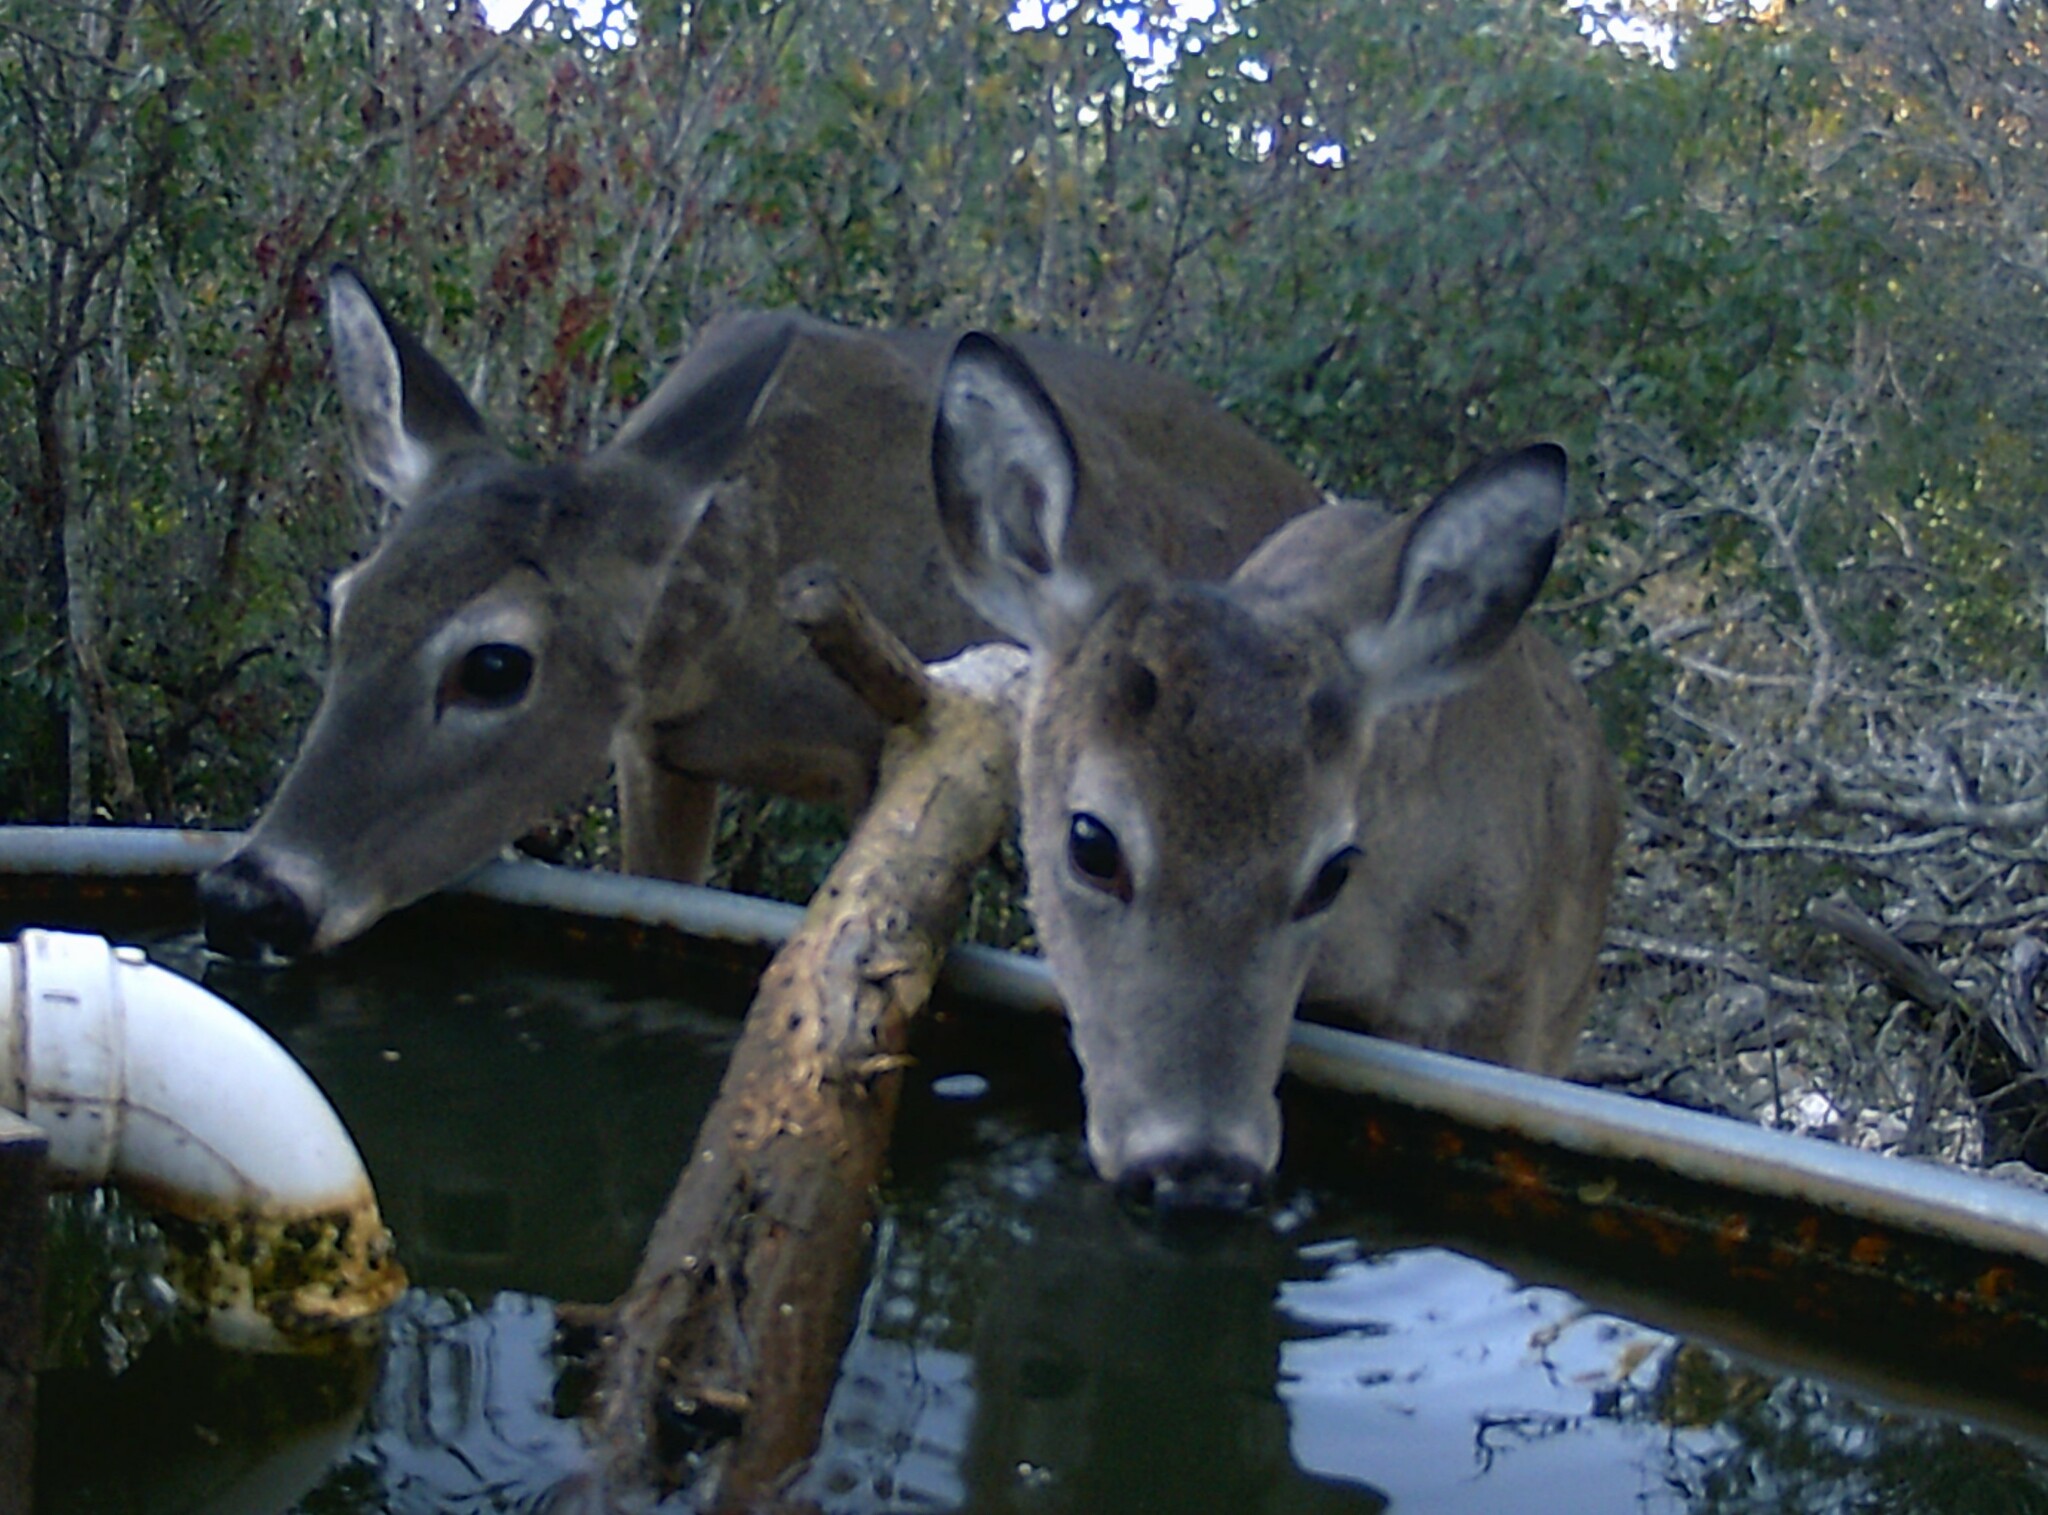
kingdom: Animalia
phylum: Chordata
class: Mammalia
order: Artiodactyla
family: Cervidae
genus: Odocoileus
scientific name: Odocoileus virginianus
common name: White-tailed deer
